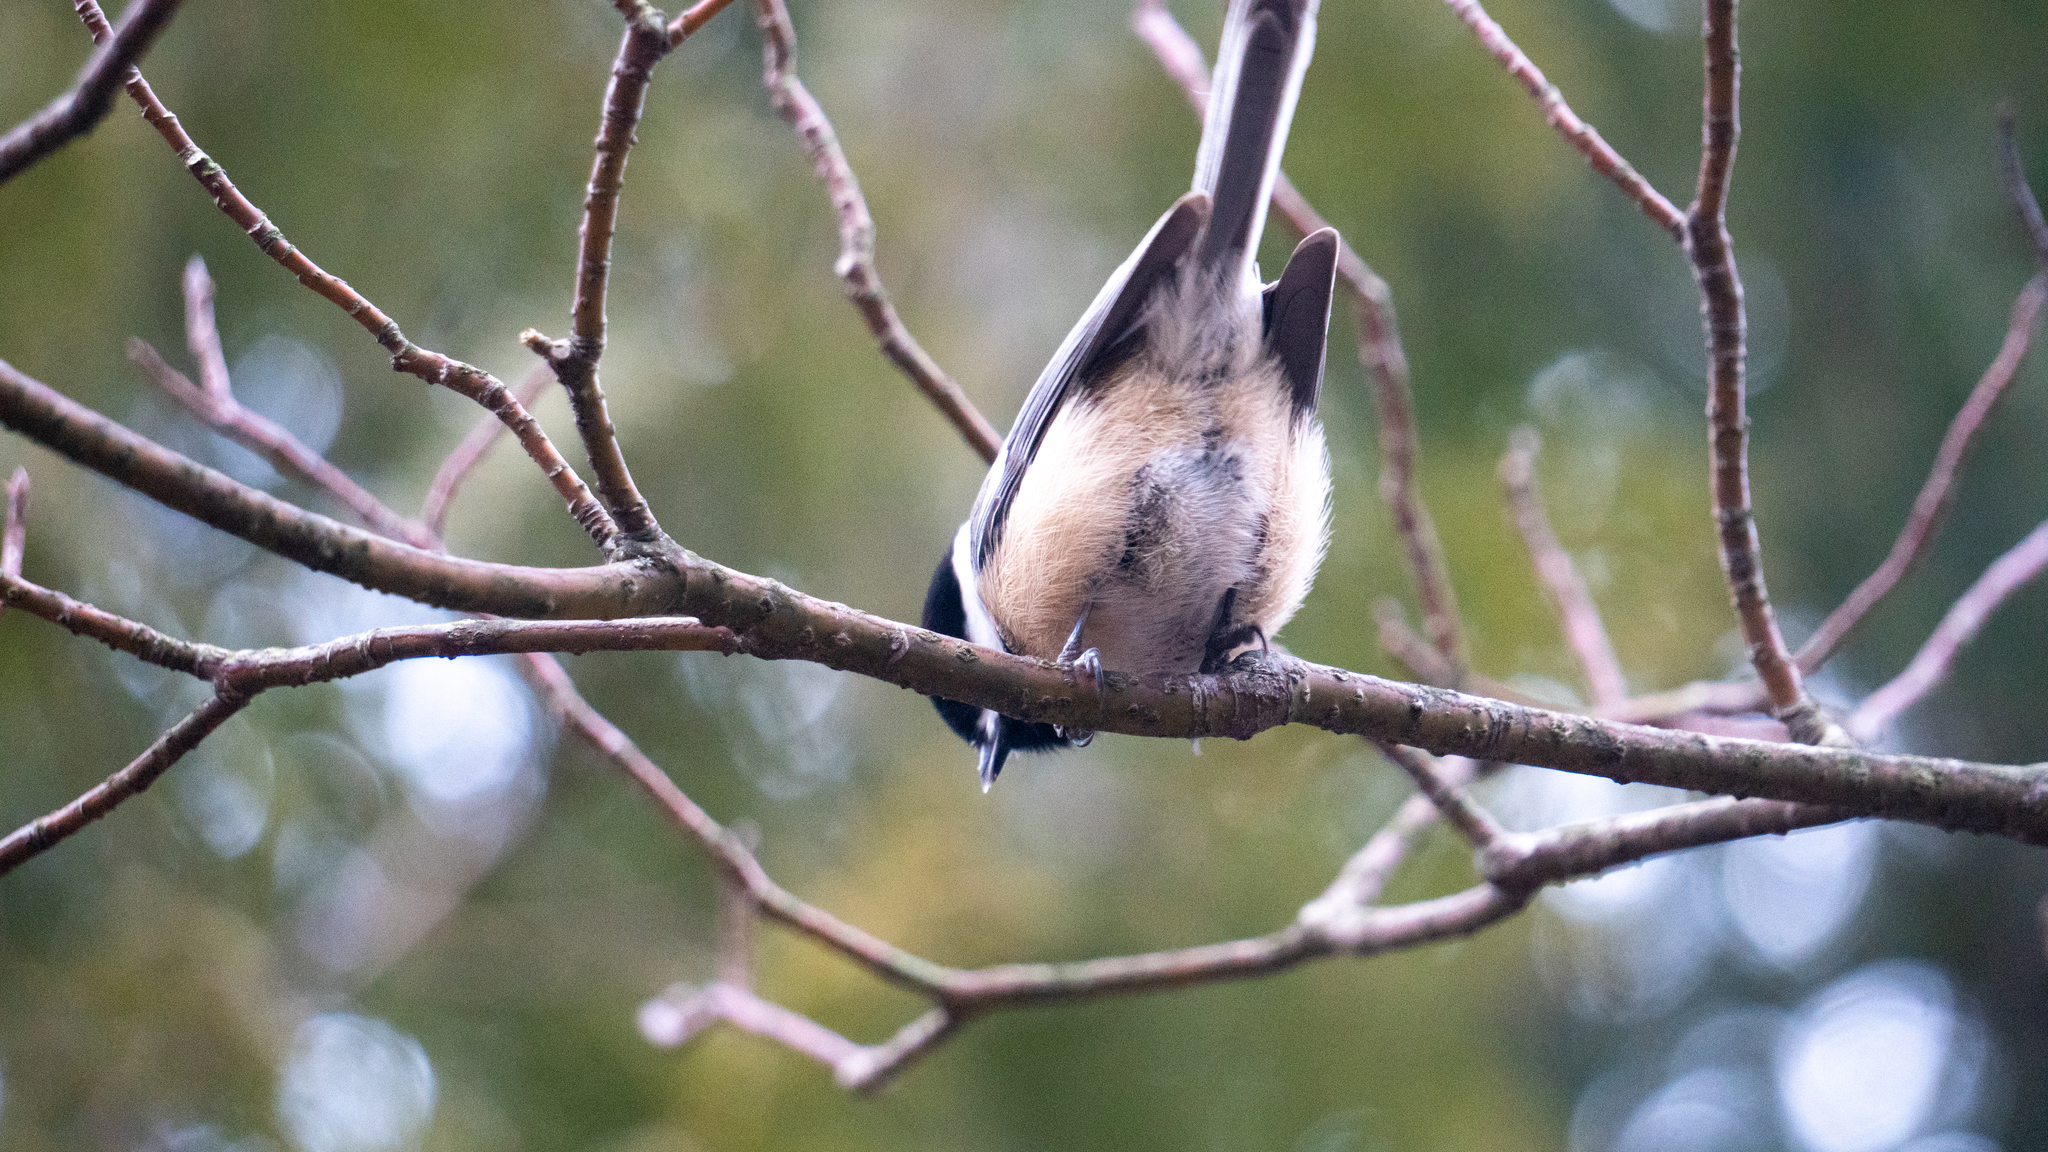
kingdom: Animalia
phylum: Chordata
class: Aves
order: Passeriformes
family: Paridae
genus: Poecile
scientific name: Poecile atricapillus
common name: Black-capped chickadee
